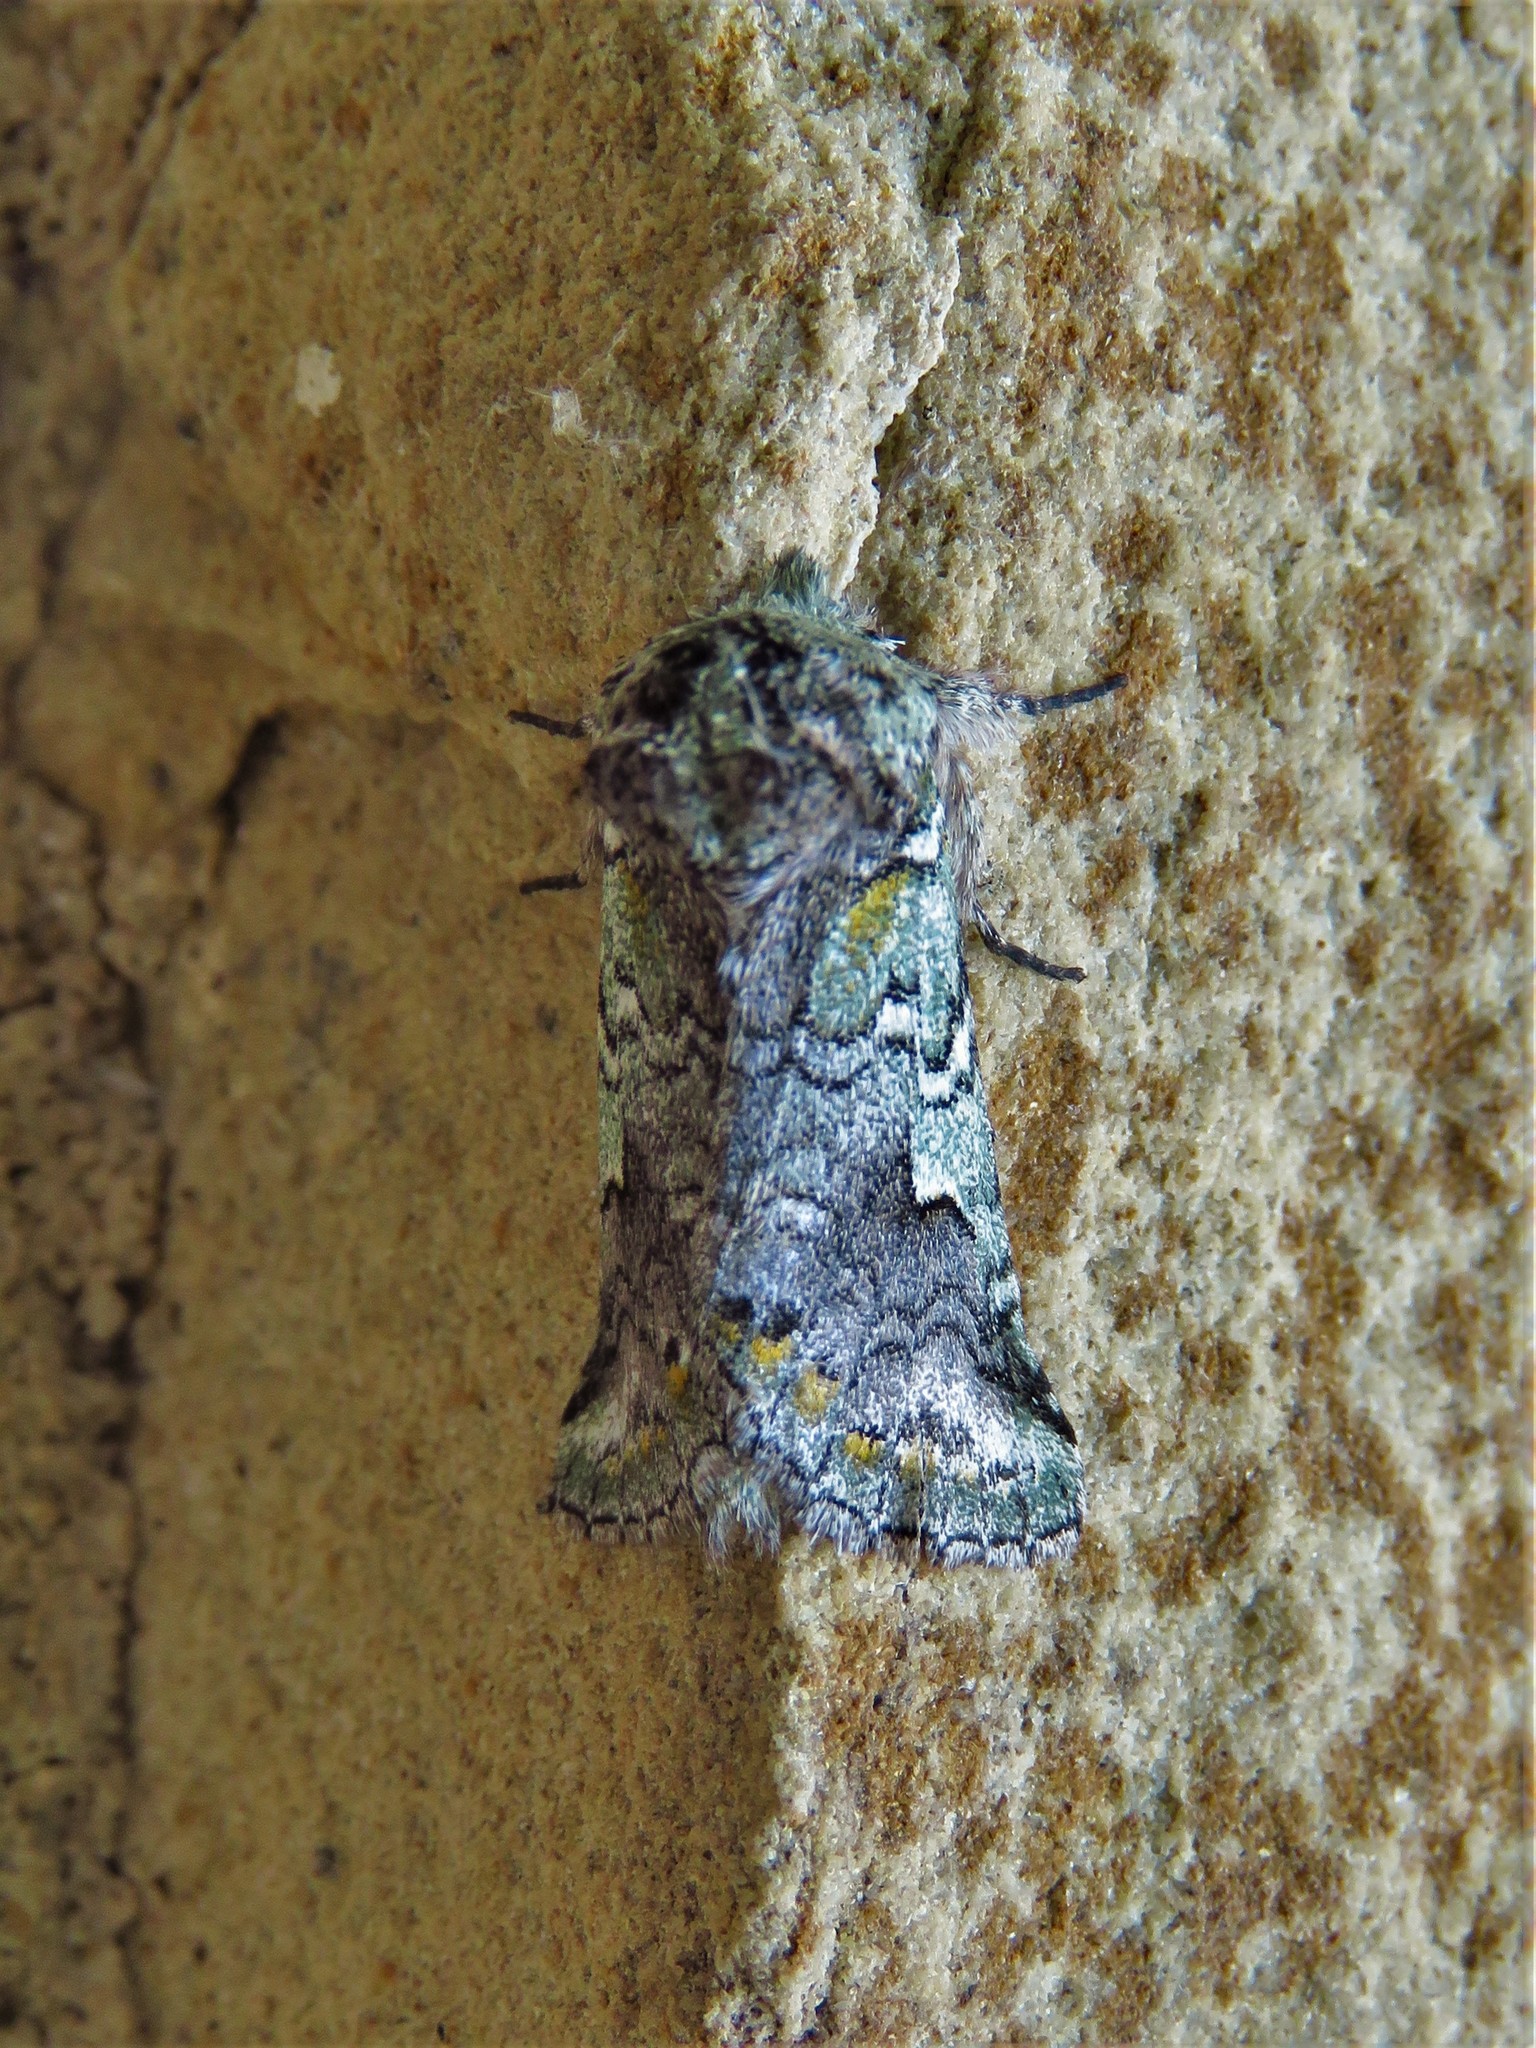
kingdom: Animalia
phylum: Arthropoda
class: Insecta
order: Lepidoptera
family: Notodontidae
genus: Litodonta
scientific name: Litodonta hydromeli
